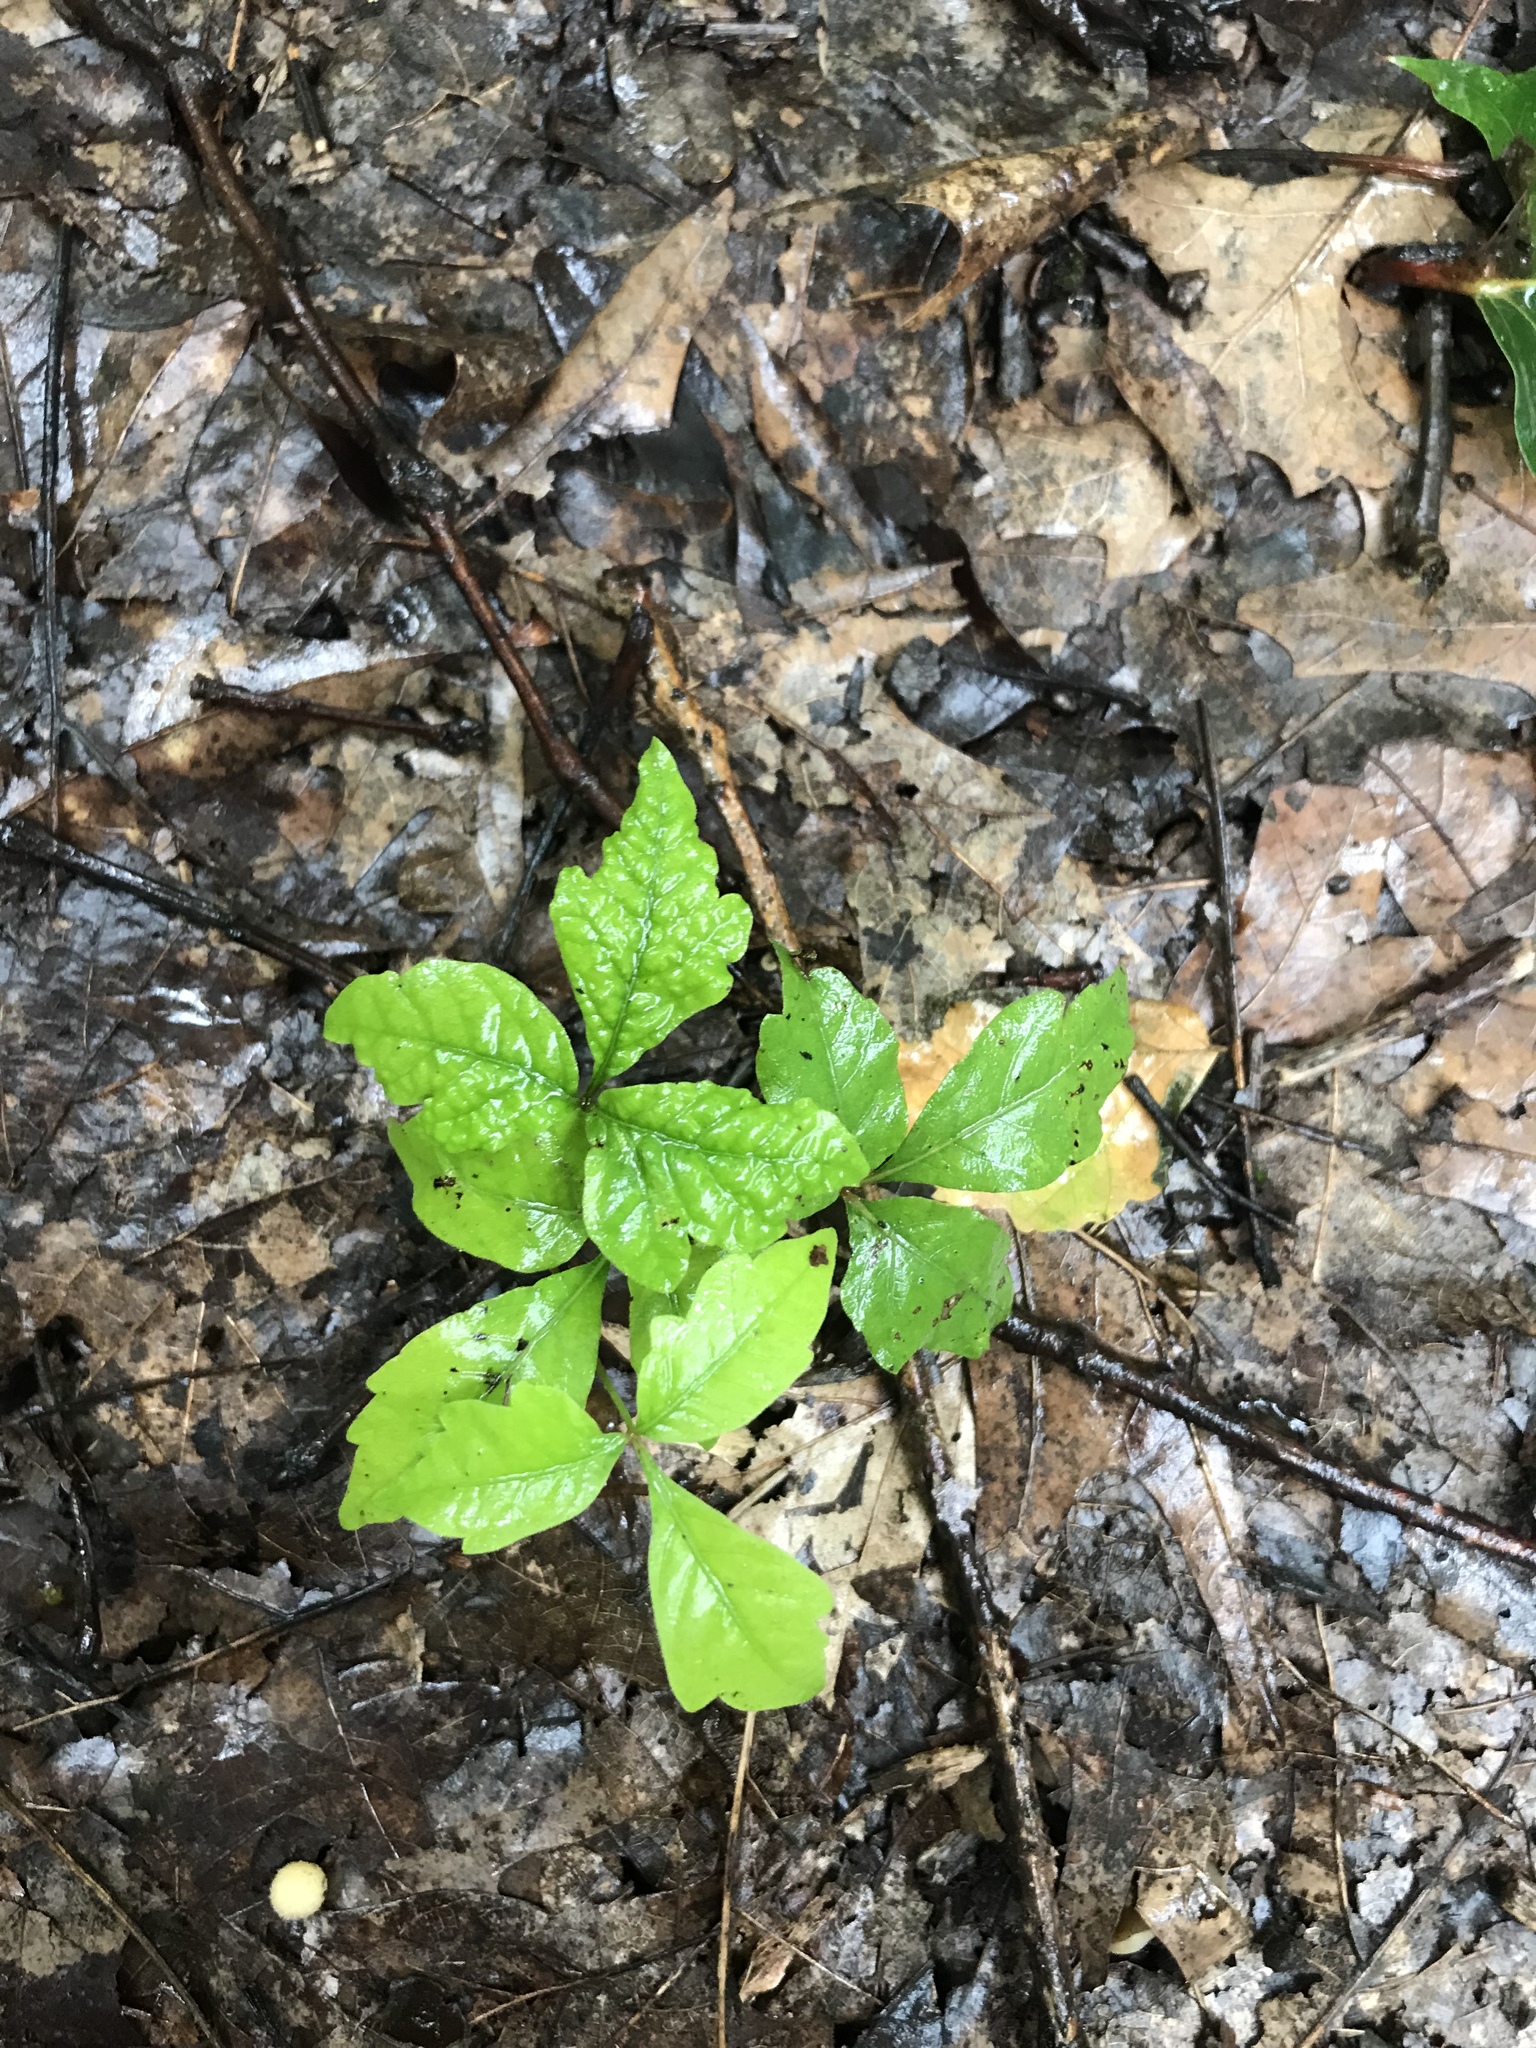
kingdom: Plantae
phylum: Tracheophyta
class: Magnoliopsida
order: Sapindales
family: Anacardiaceae
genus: Toxicodendron
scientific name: Toxicodendron radicans
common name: Poison ivy
